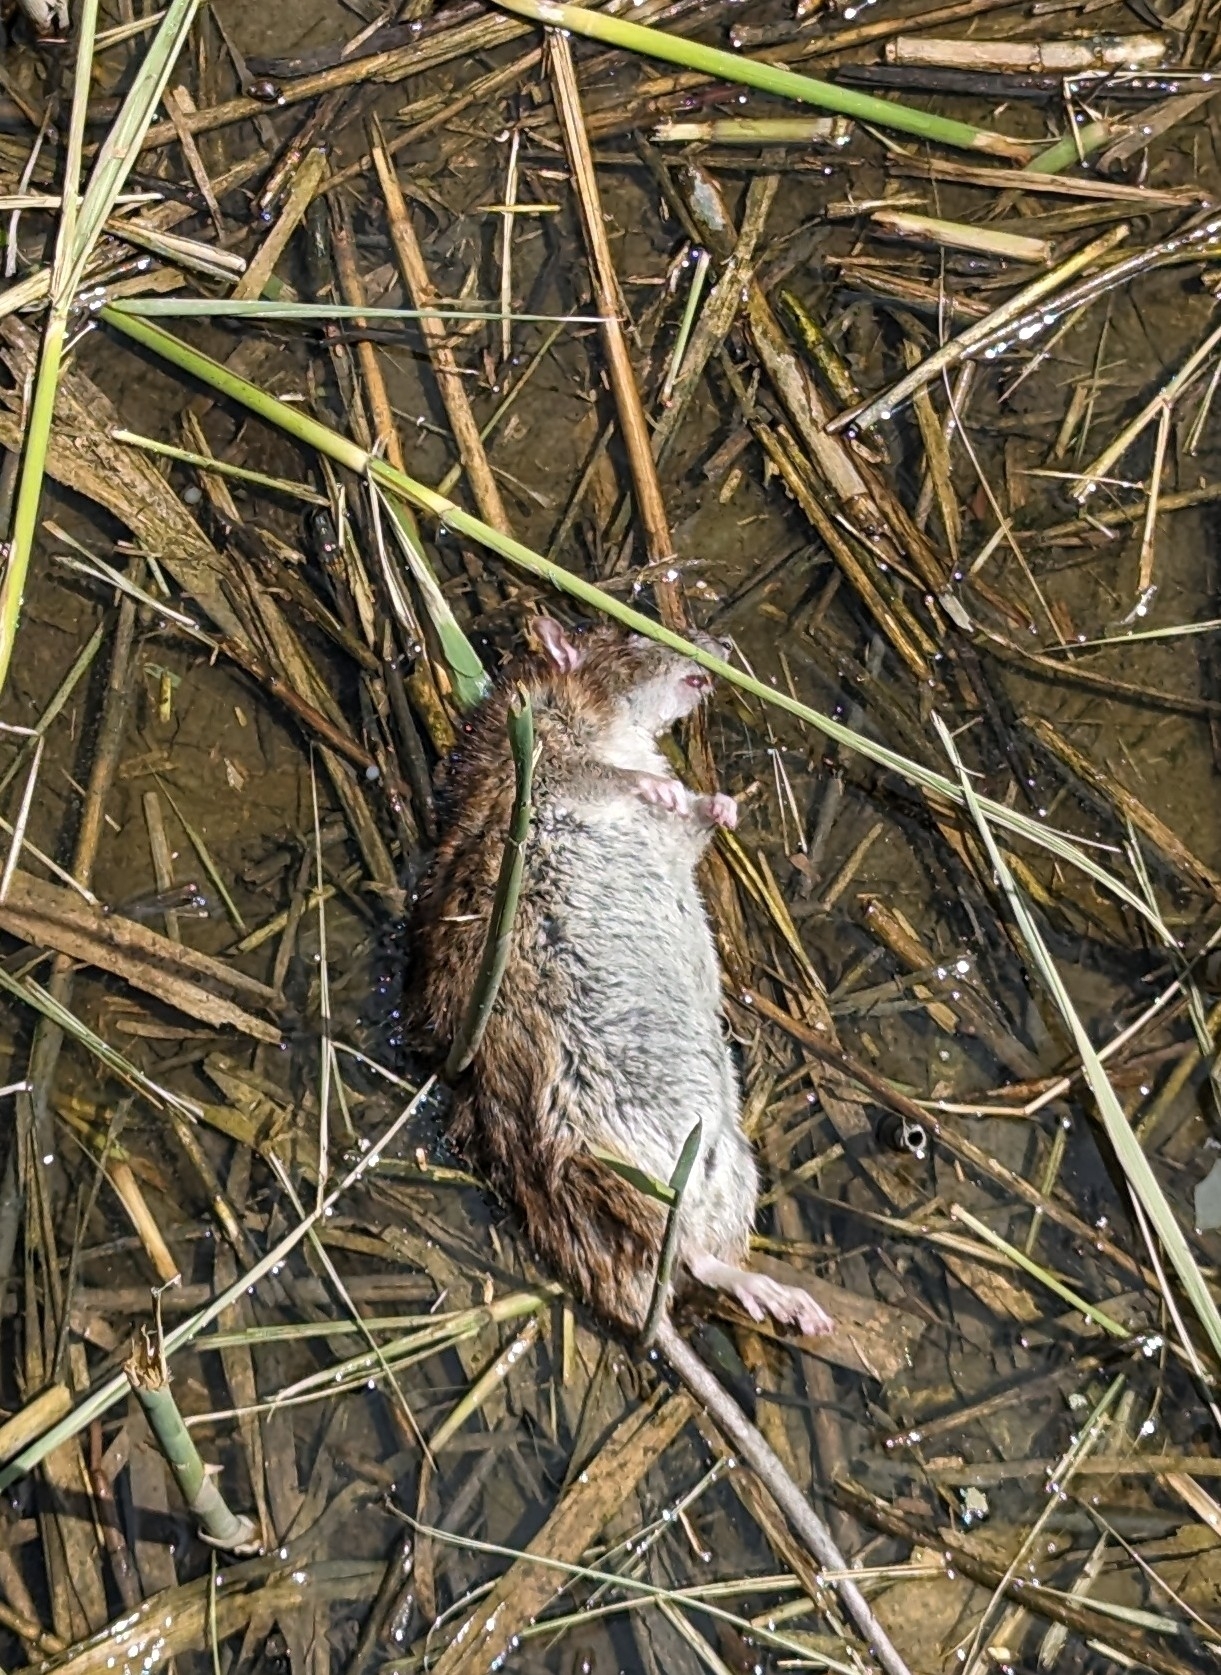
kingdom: Animalia
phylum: Chordata
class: Mammalia
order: Rodentia
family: Muridae
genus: Rattus
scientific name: Rattus norvegicus
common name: Brown rat
